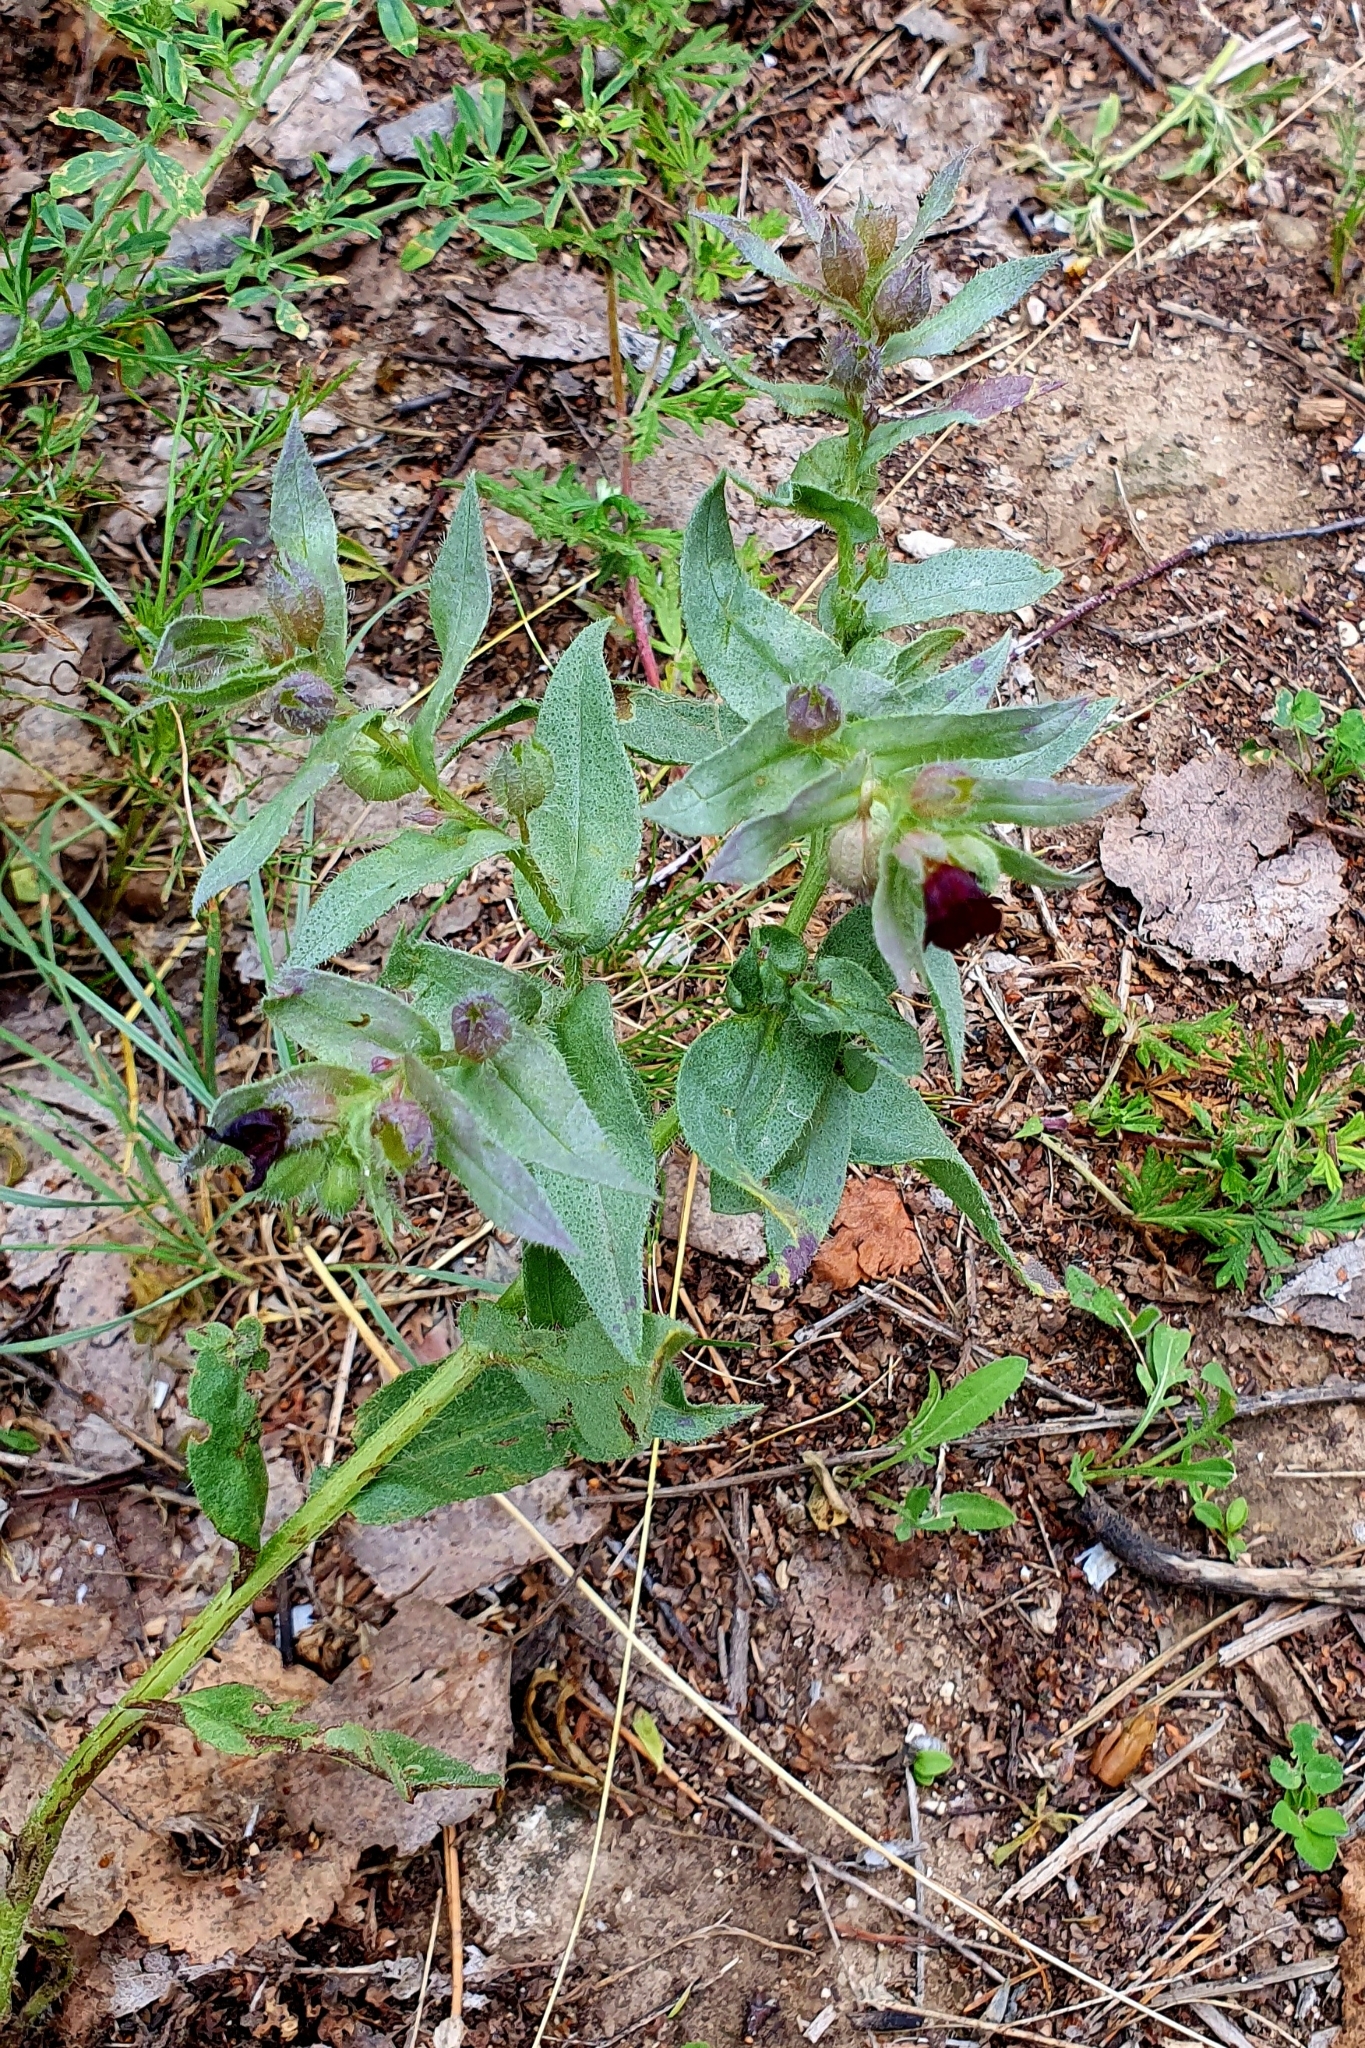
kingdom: Plantae
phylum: Tracheophyta
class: Magnoliopsida
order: Boraginales
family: Boraginaceae
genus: Nonea
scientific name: Nonea pulla
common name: Brown nonea
